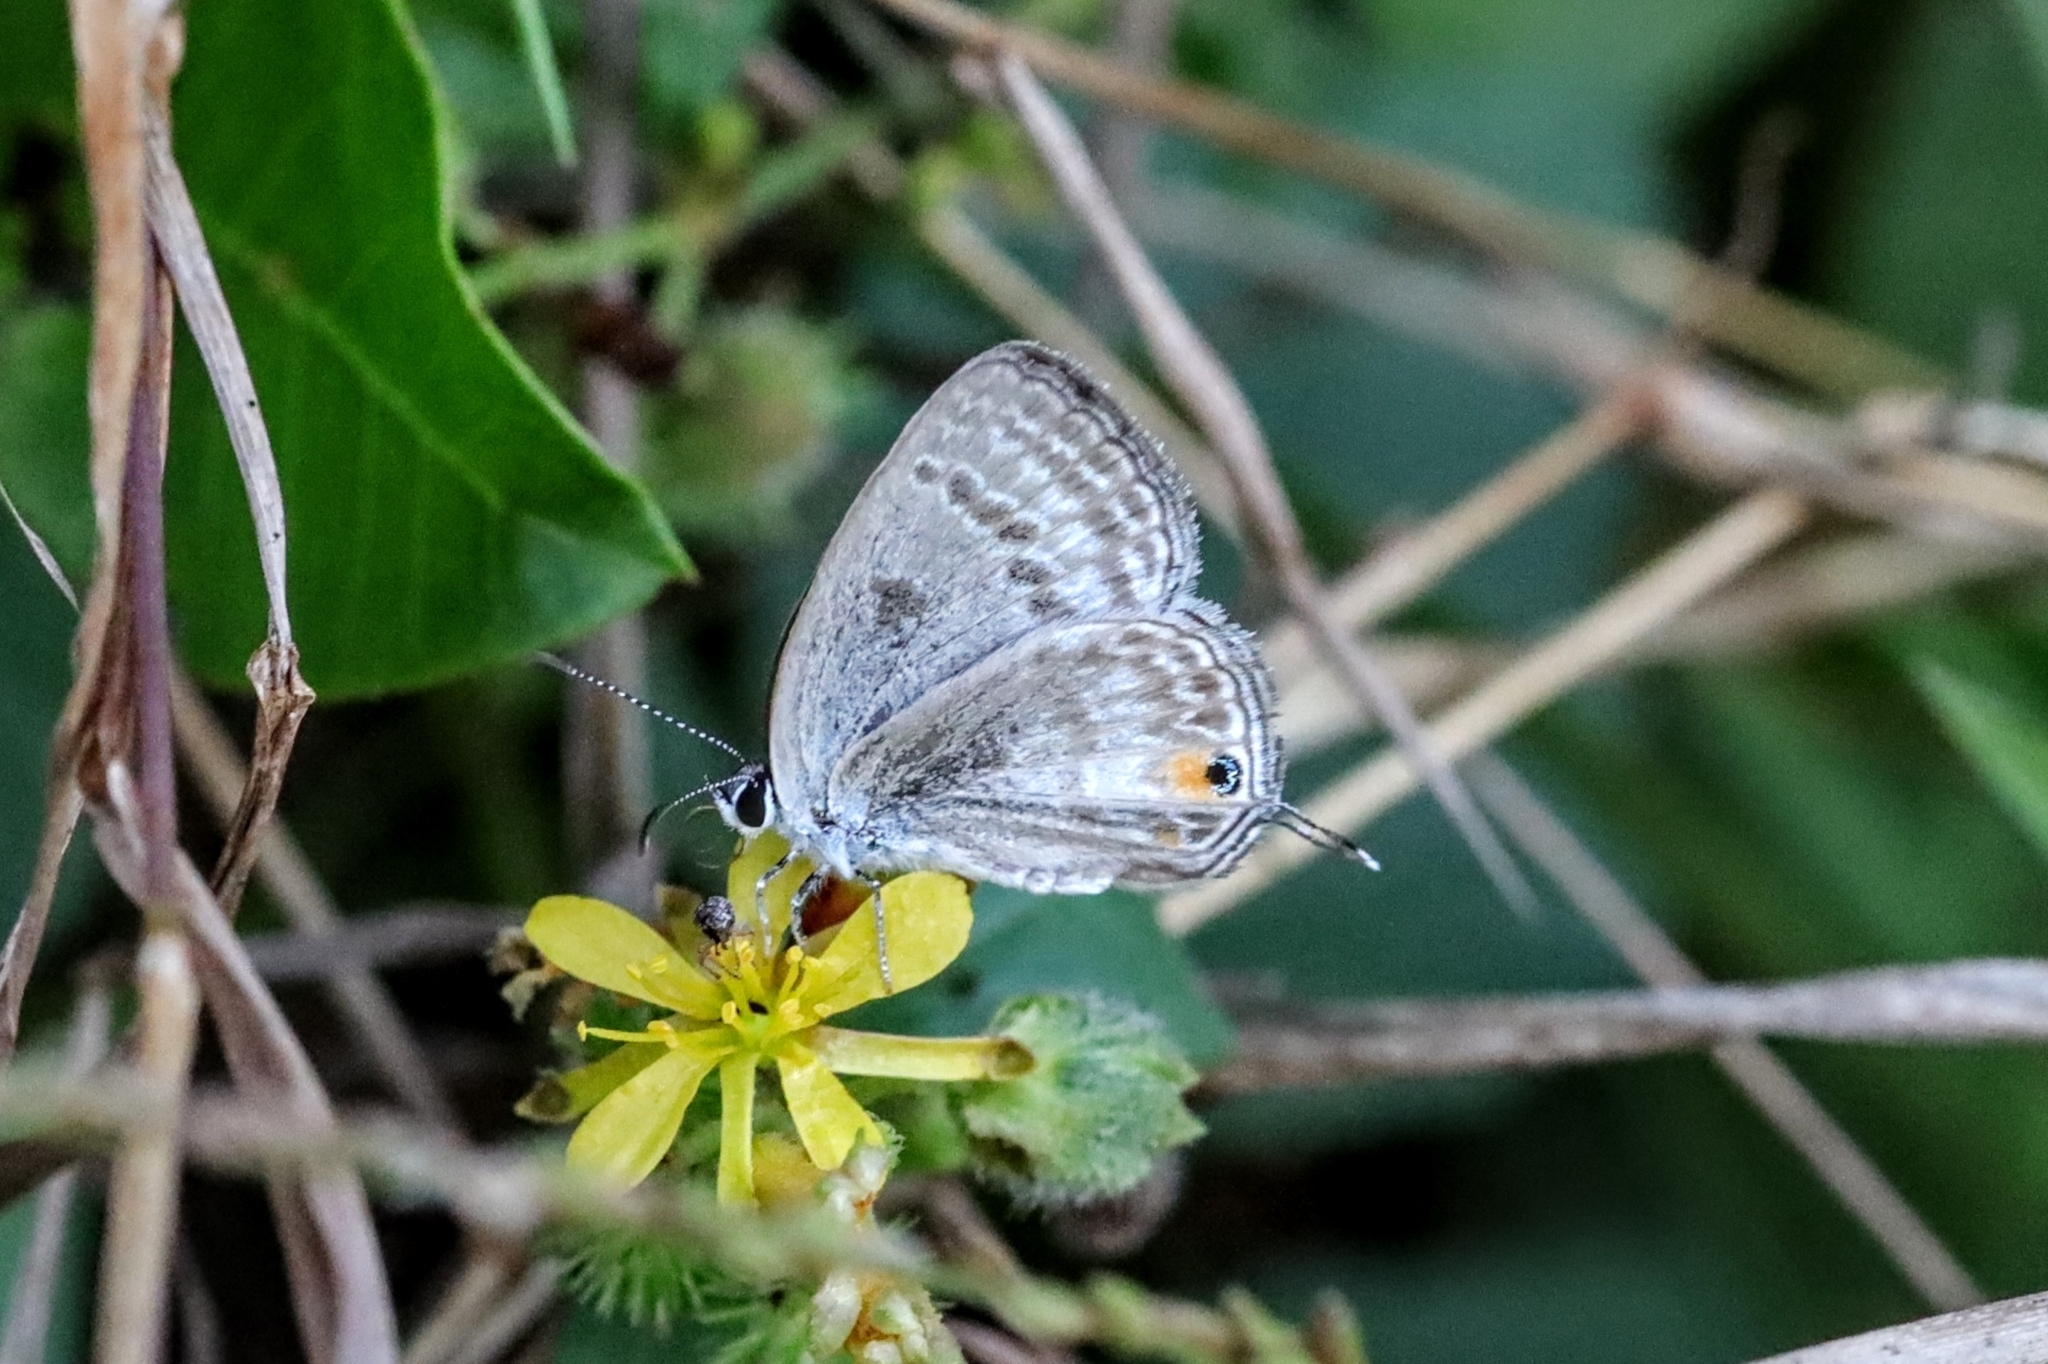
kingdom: Animalia
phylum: Arthropoda
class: Insecta
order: Lepidoptera
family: Lycaenidae
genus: Euchrysops
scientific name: Euchrysops barkeri
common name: Barker's smoky blue
